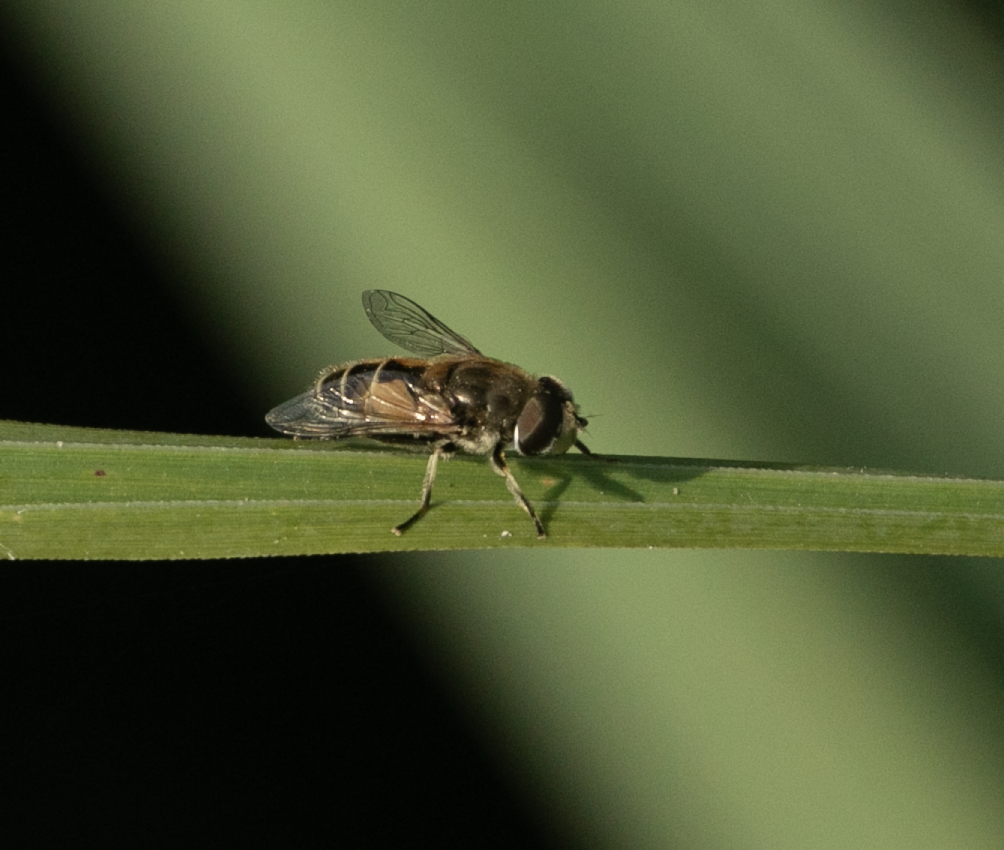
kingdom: Animalia
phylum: Arthropoda
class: Insecta
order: Diptera
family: Syrphidae
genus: Eristalis
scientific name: Eristalis arbustorum
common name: Hover fly
